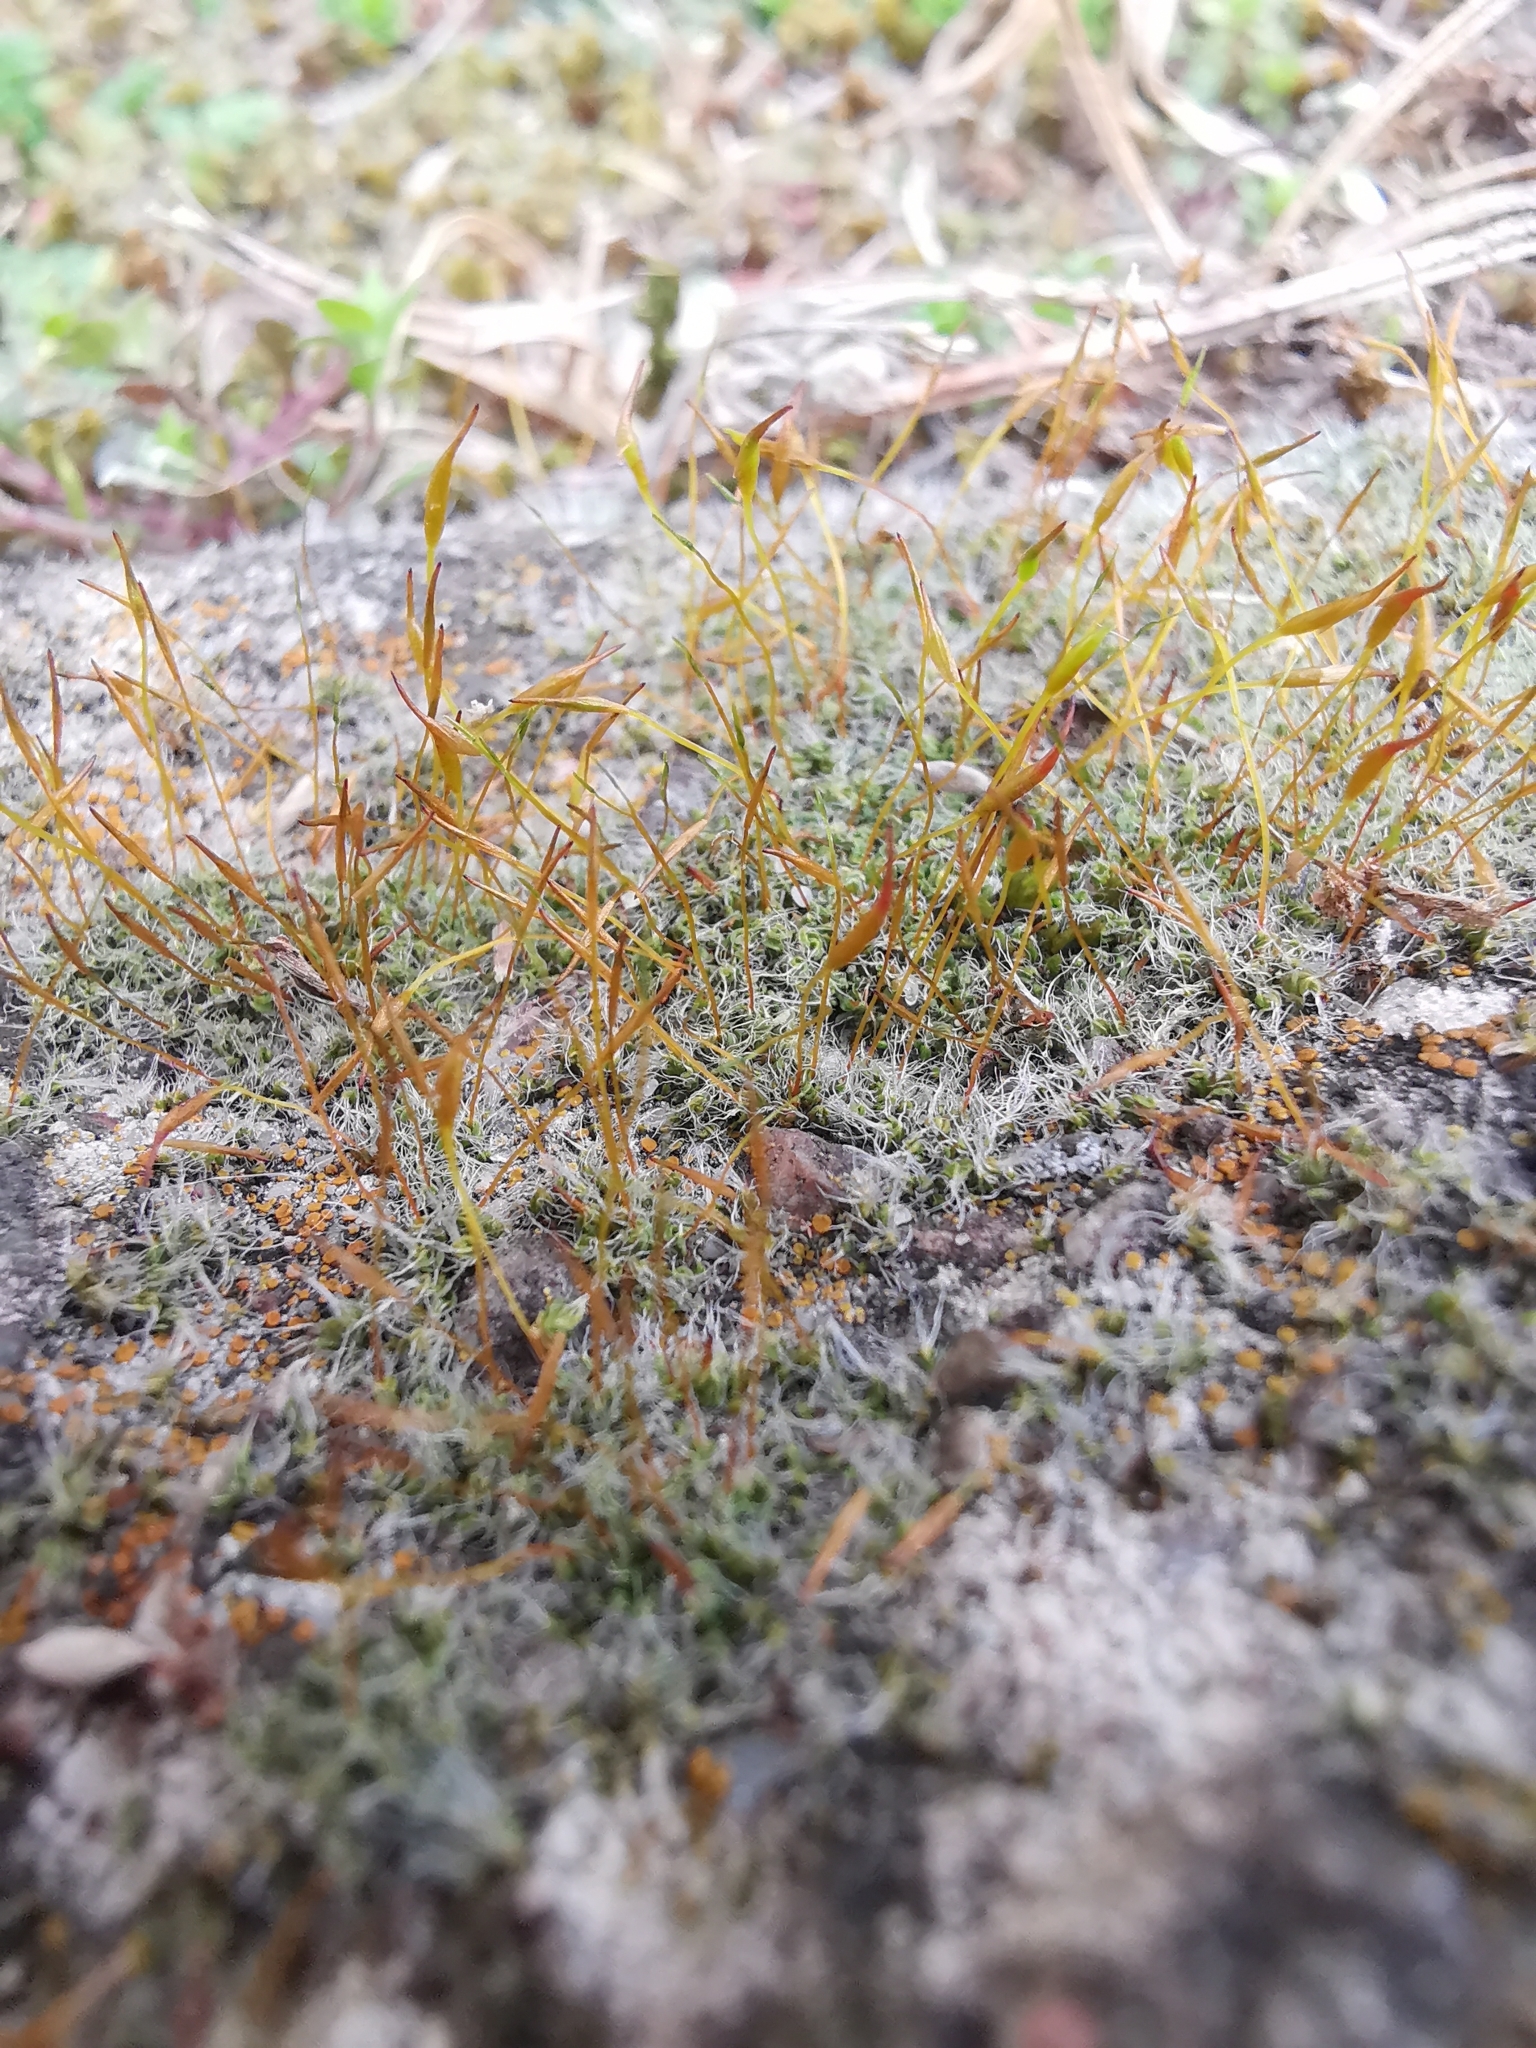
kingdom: Plantae
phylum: Bryophyta
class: Bryopsida
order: Pottiales
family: Pottiaceae
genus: Tortula
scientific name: Tortula muralis
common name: Wall screw-moss
